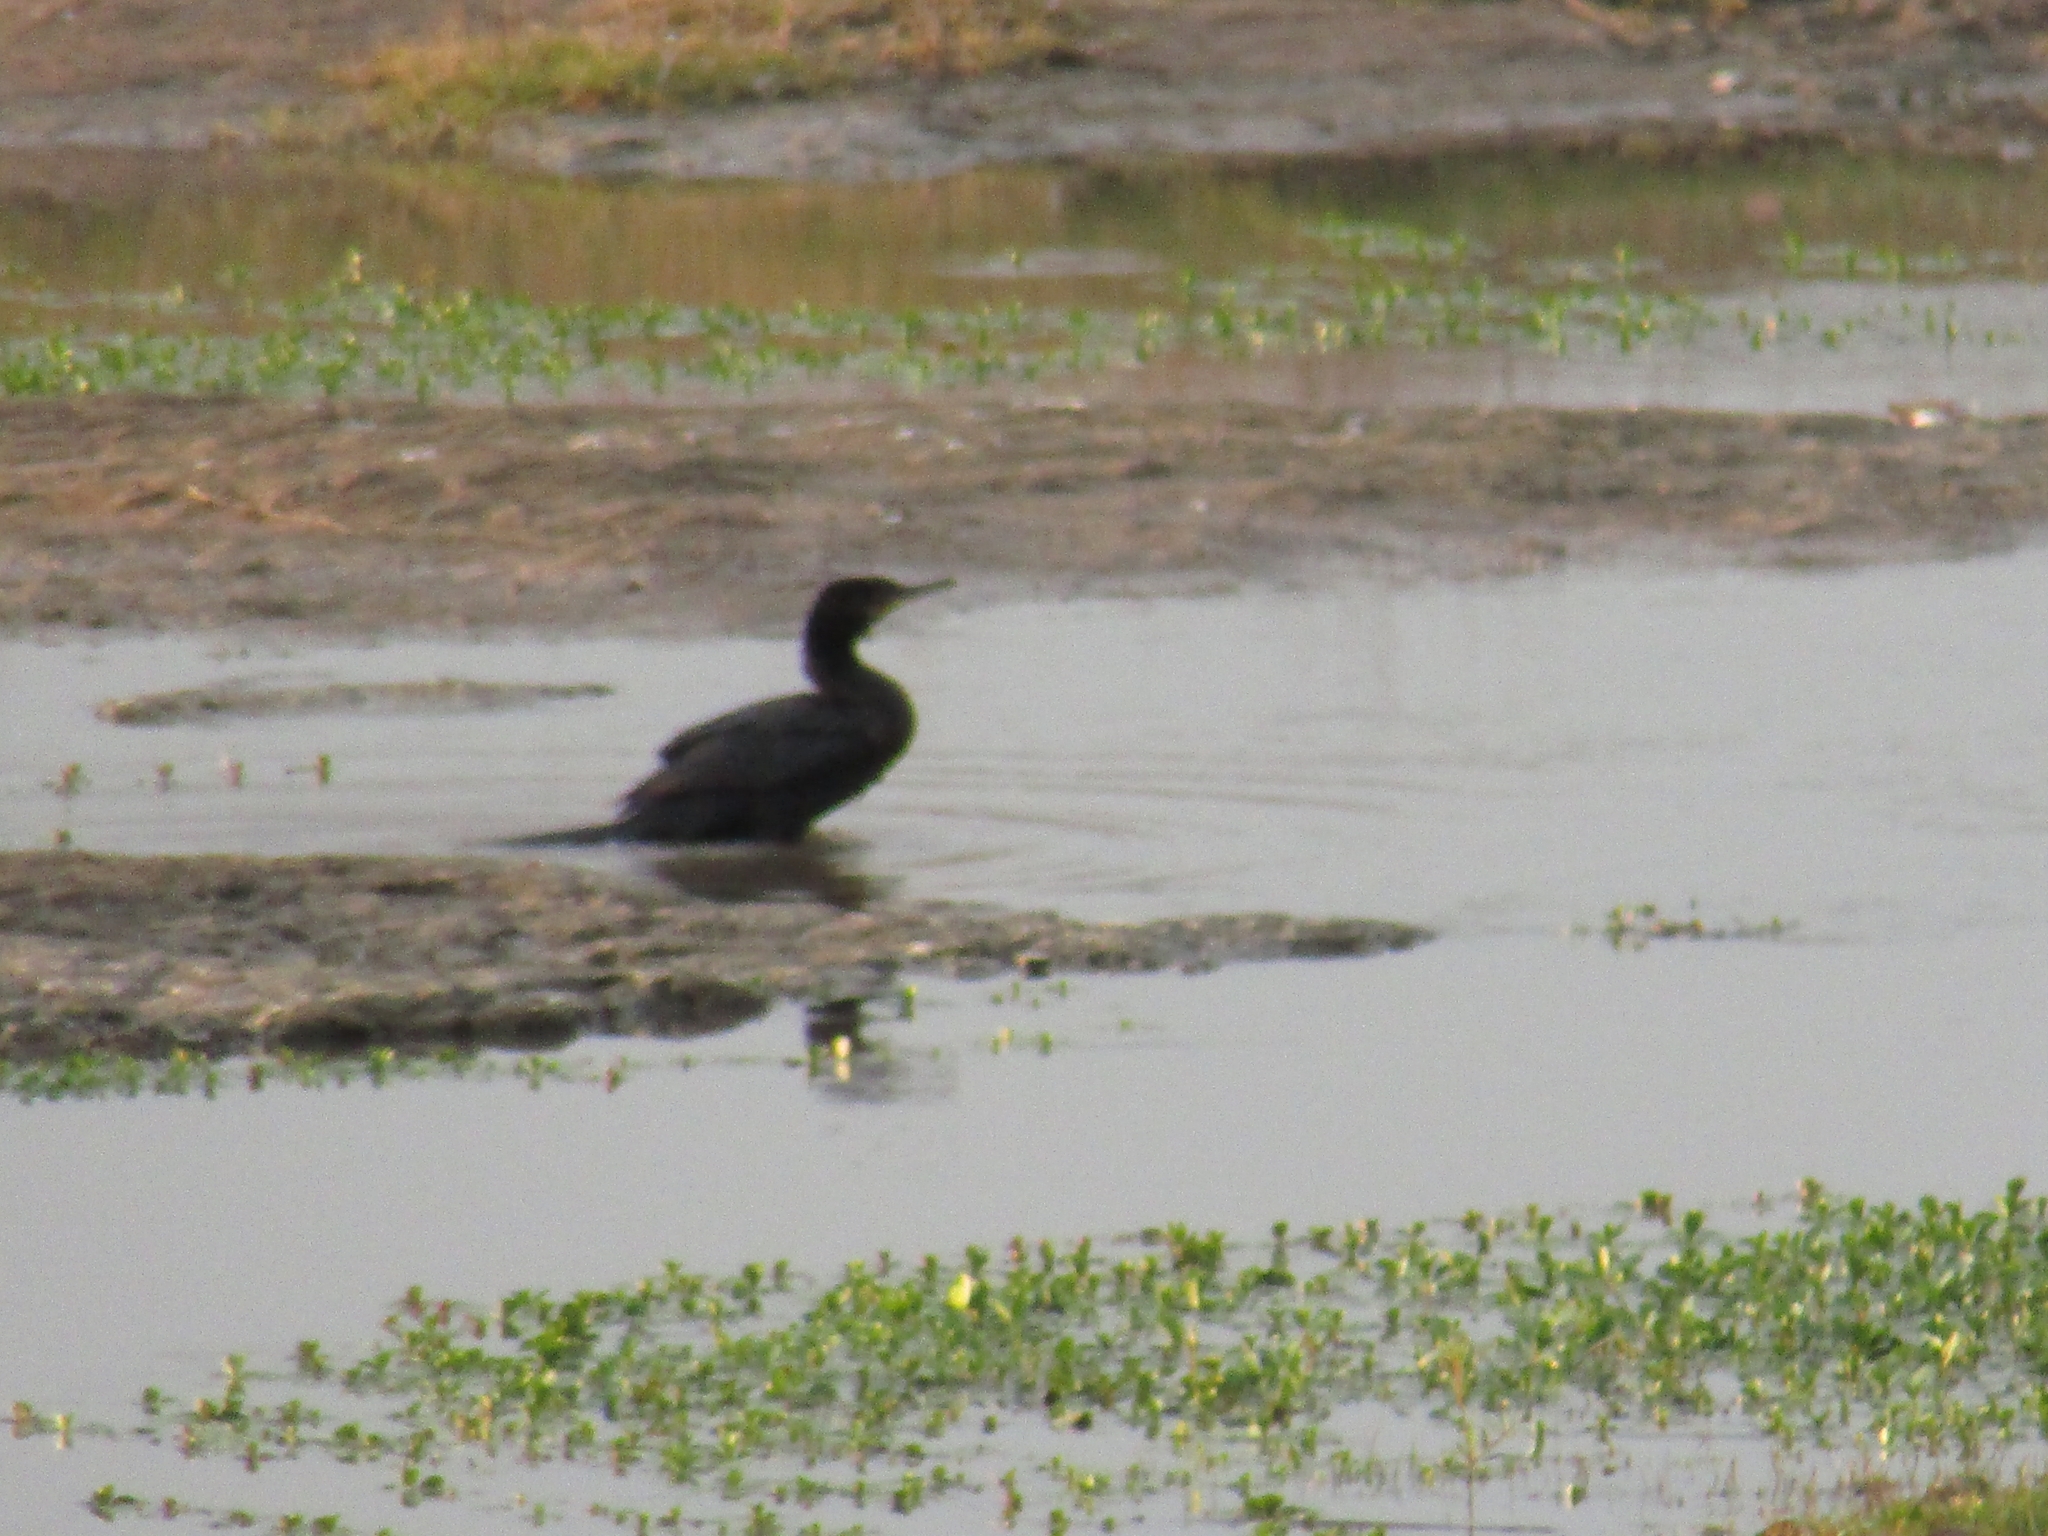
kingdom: Animalia
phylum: Chordata
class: Aves
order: Suliformes
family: Phalacrocoracidae
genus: Phalacrocorax
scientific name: Phalacrocorax brasilianus
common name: Neotropic cormorant
